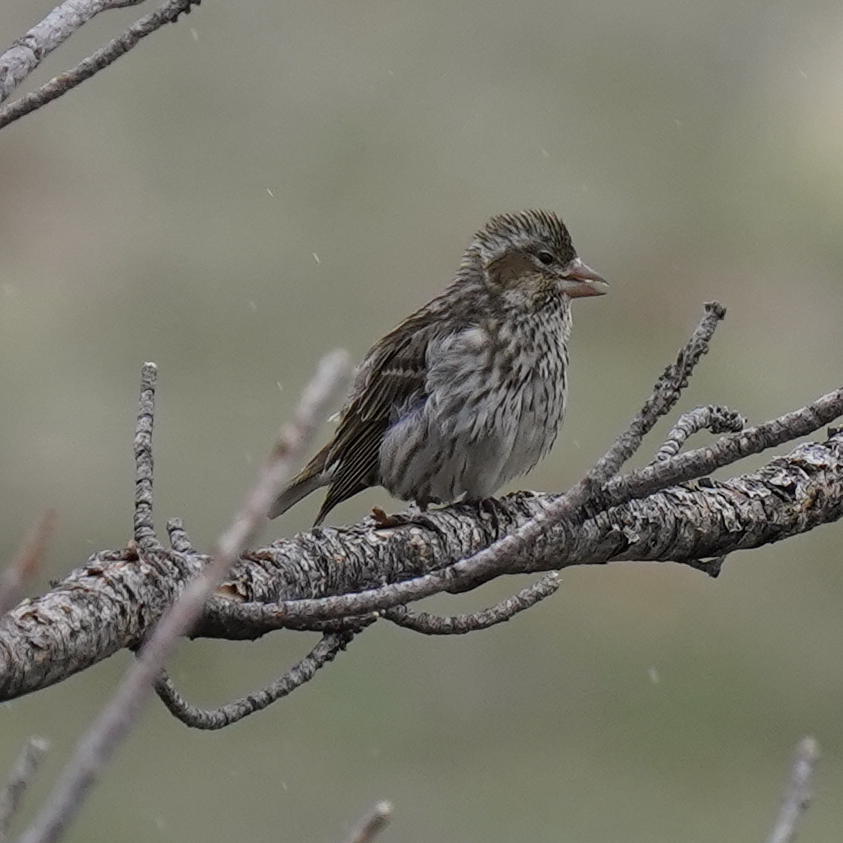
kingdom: Animalia
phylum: Chordata
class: Aves
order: Passeriformes
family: Fringillidae
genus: Haemorhous
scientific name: Haemorhous cassinii
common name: Cassin's finch
